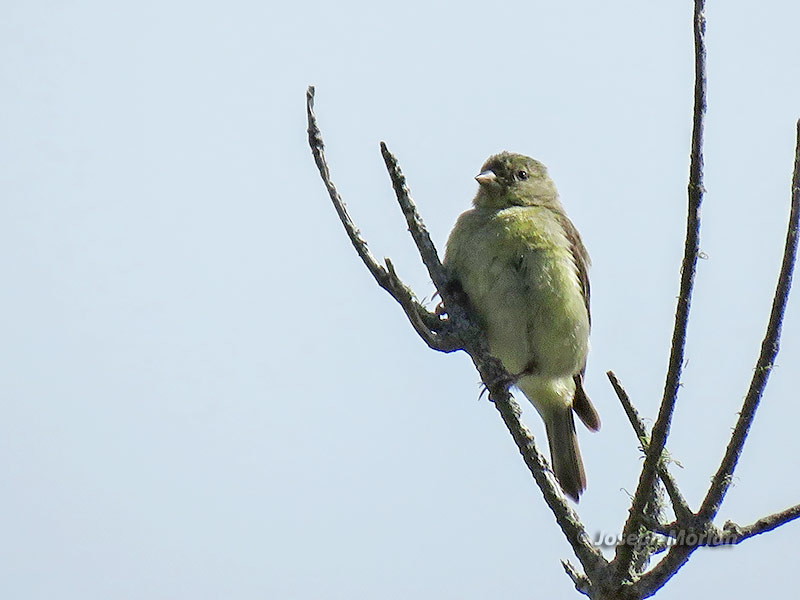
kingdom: Animalia
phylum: Chordata
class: Aves
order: Passeriformes
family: Fringillidae
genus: Spinus
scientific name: Spinus psaltria
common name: Lesser goldfinch
